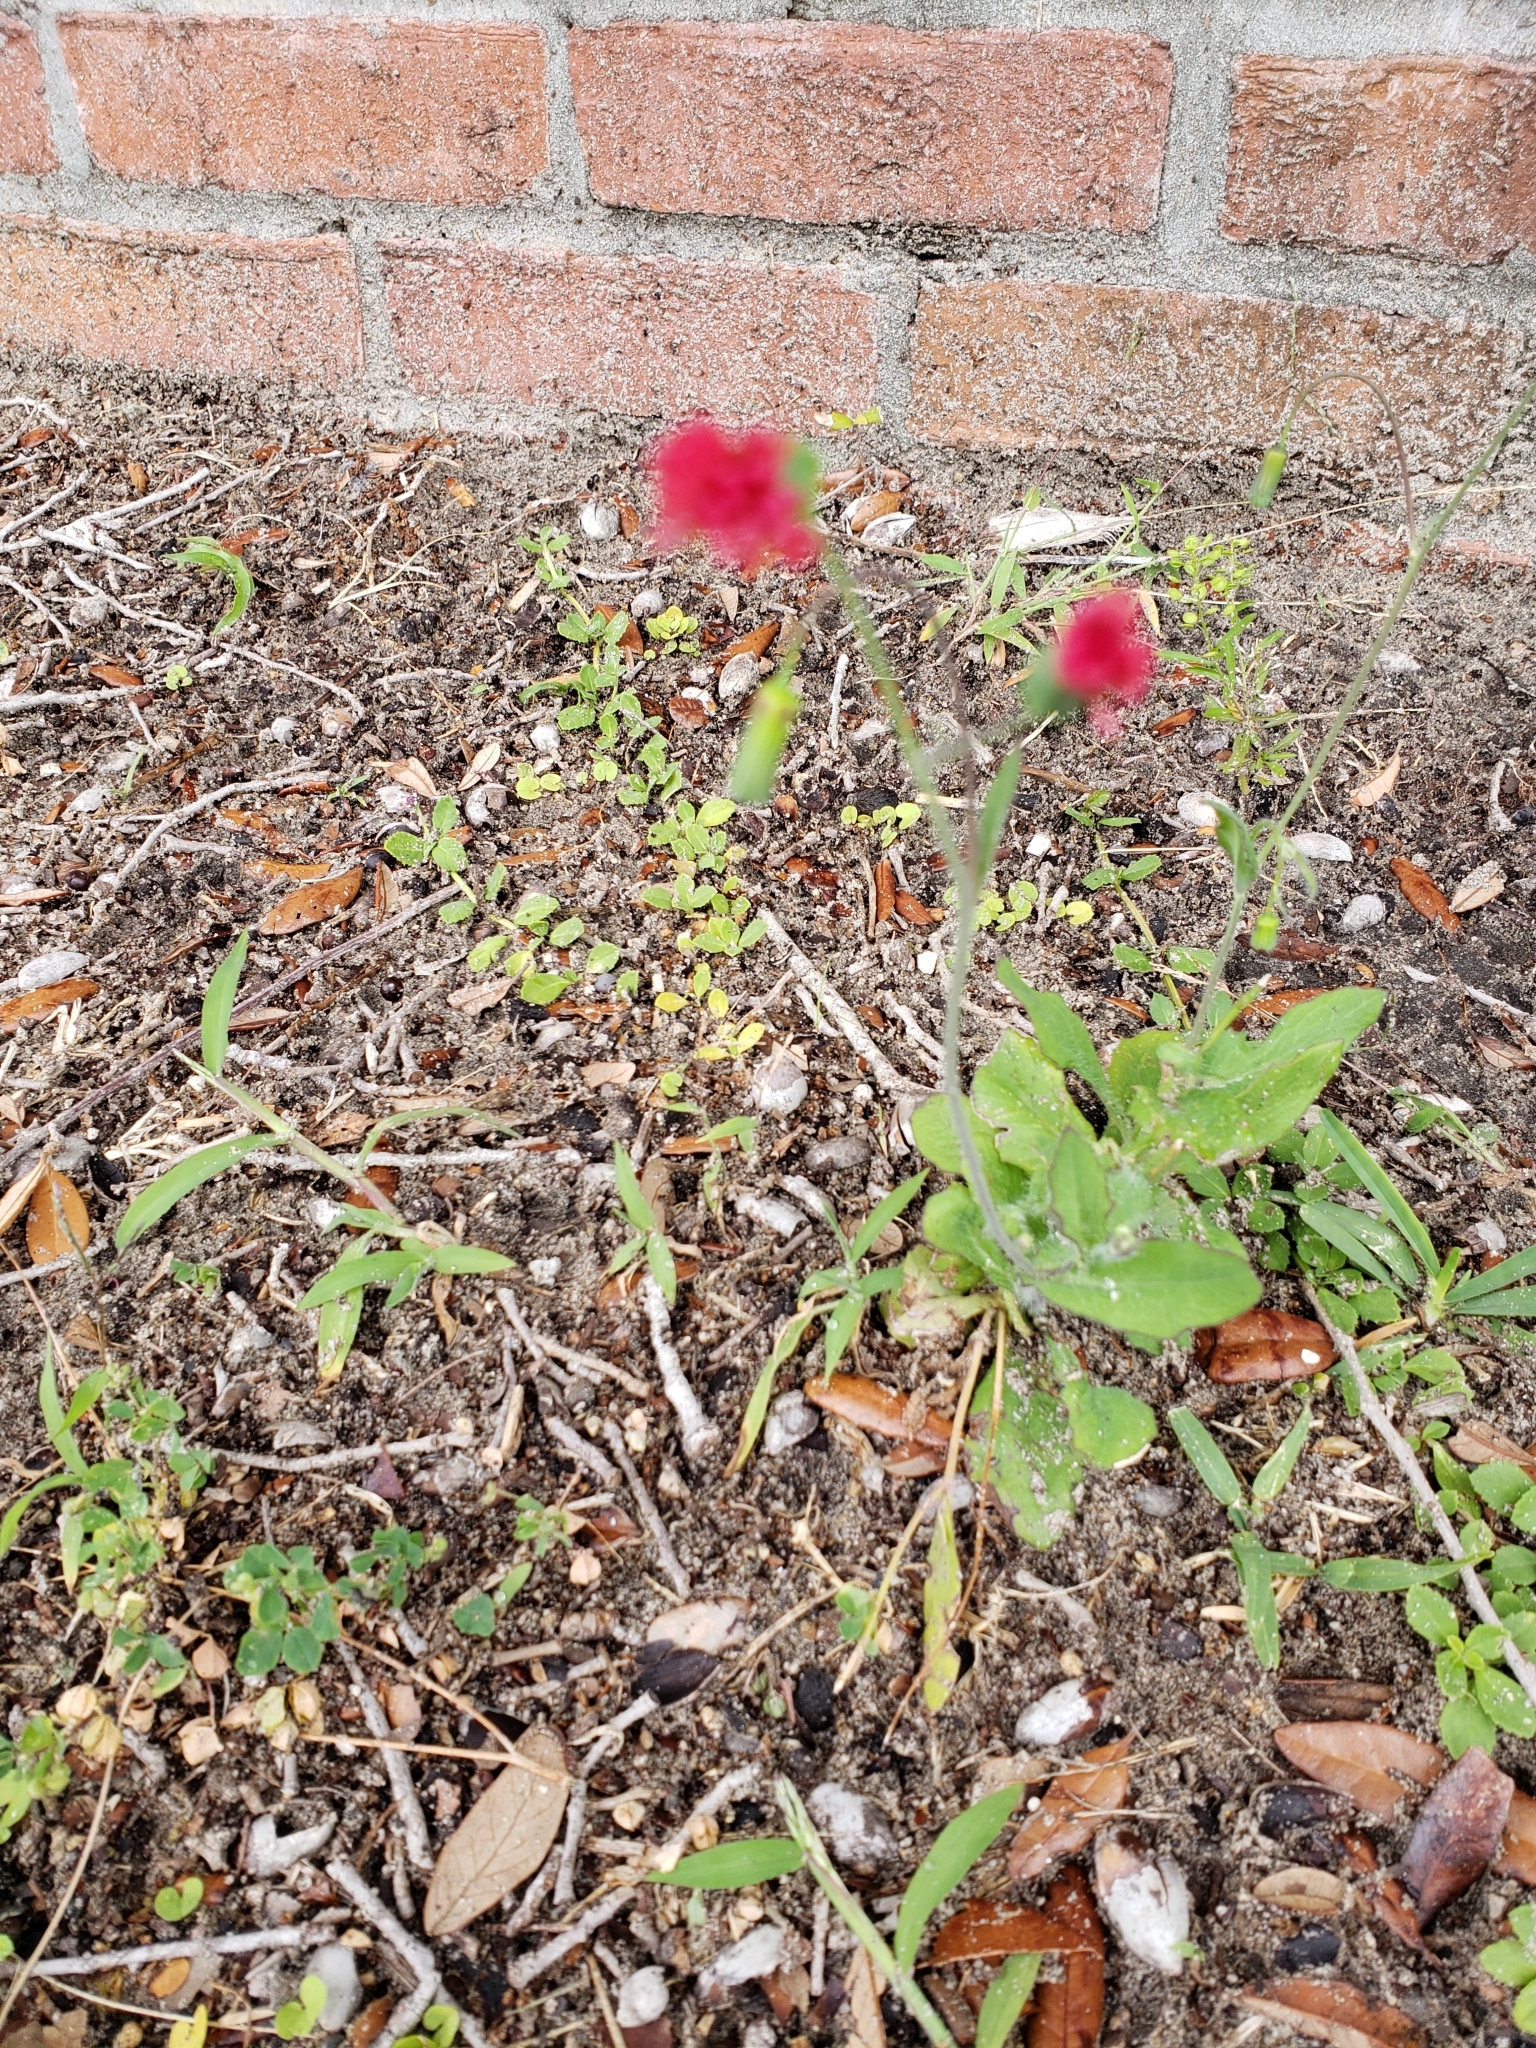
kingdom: Plantae
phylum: Tracheophyta
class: Magnoliopsida
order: Asterales
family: Asteraceae
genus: Emilia
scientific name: Emilia fosbergii
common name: Florida tasselflower
